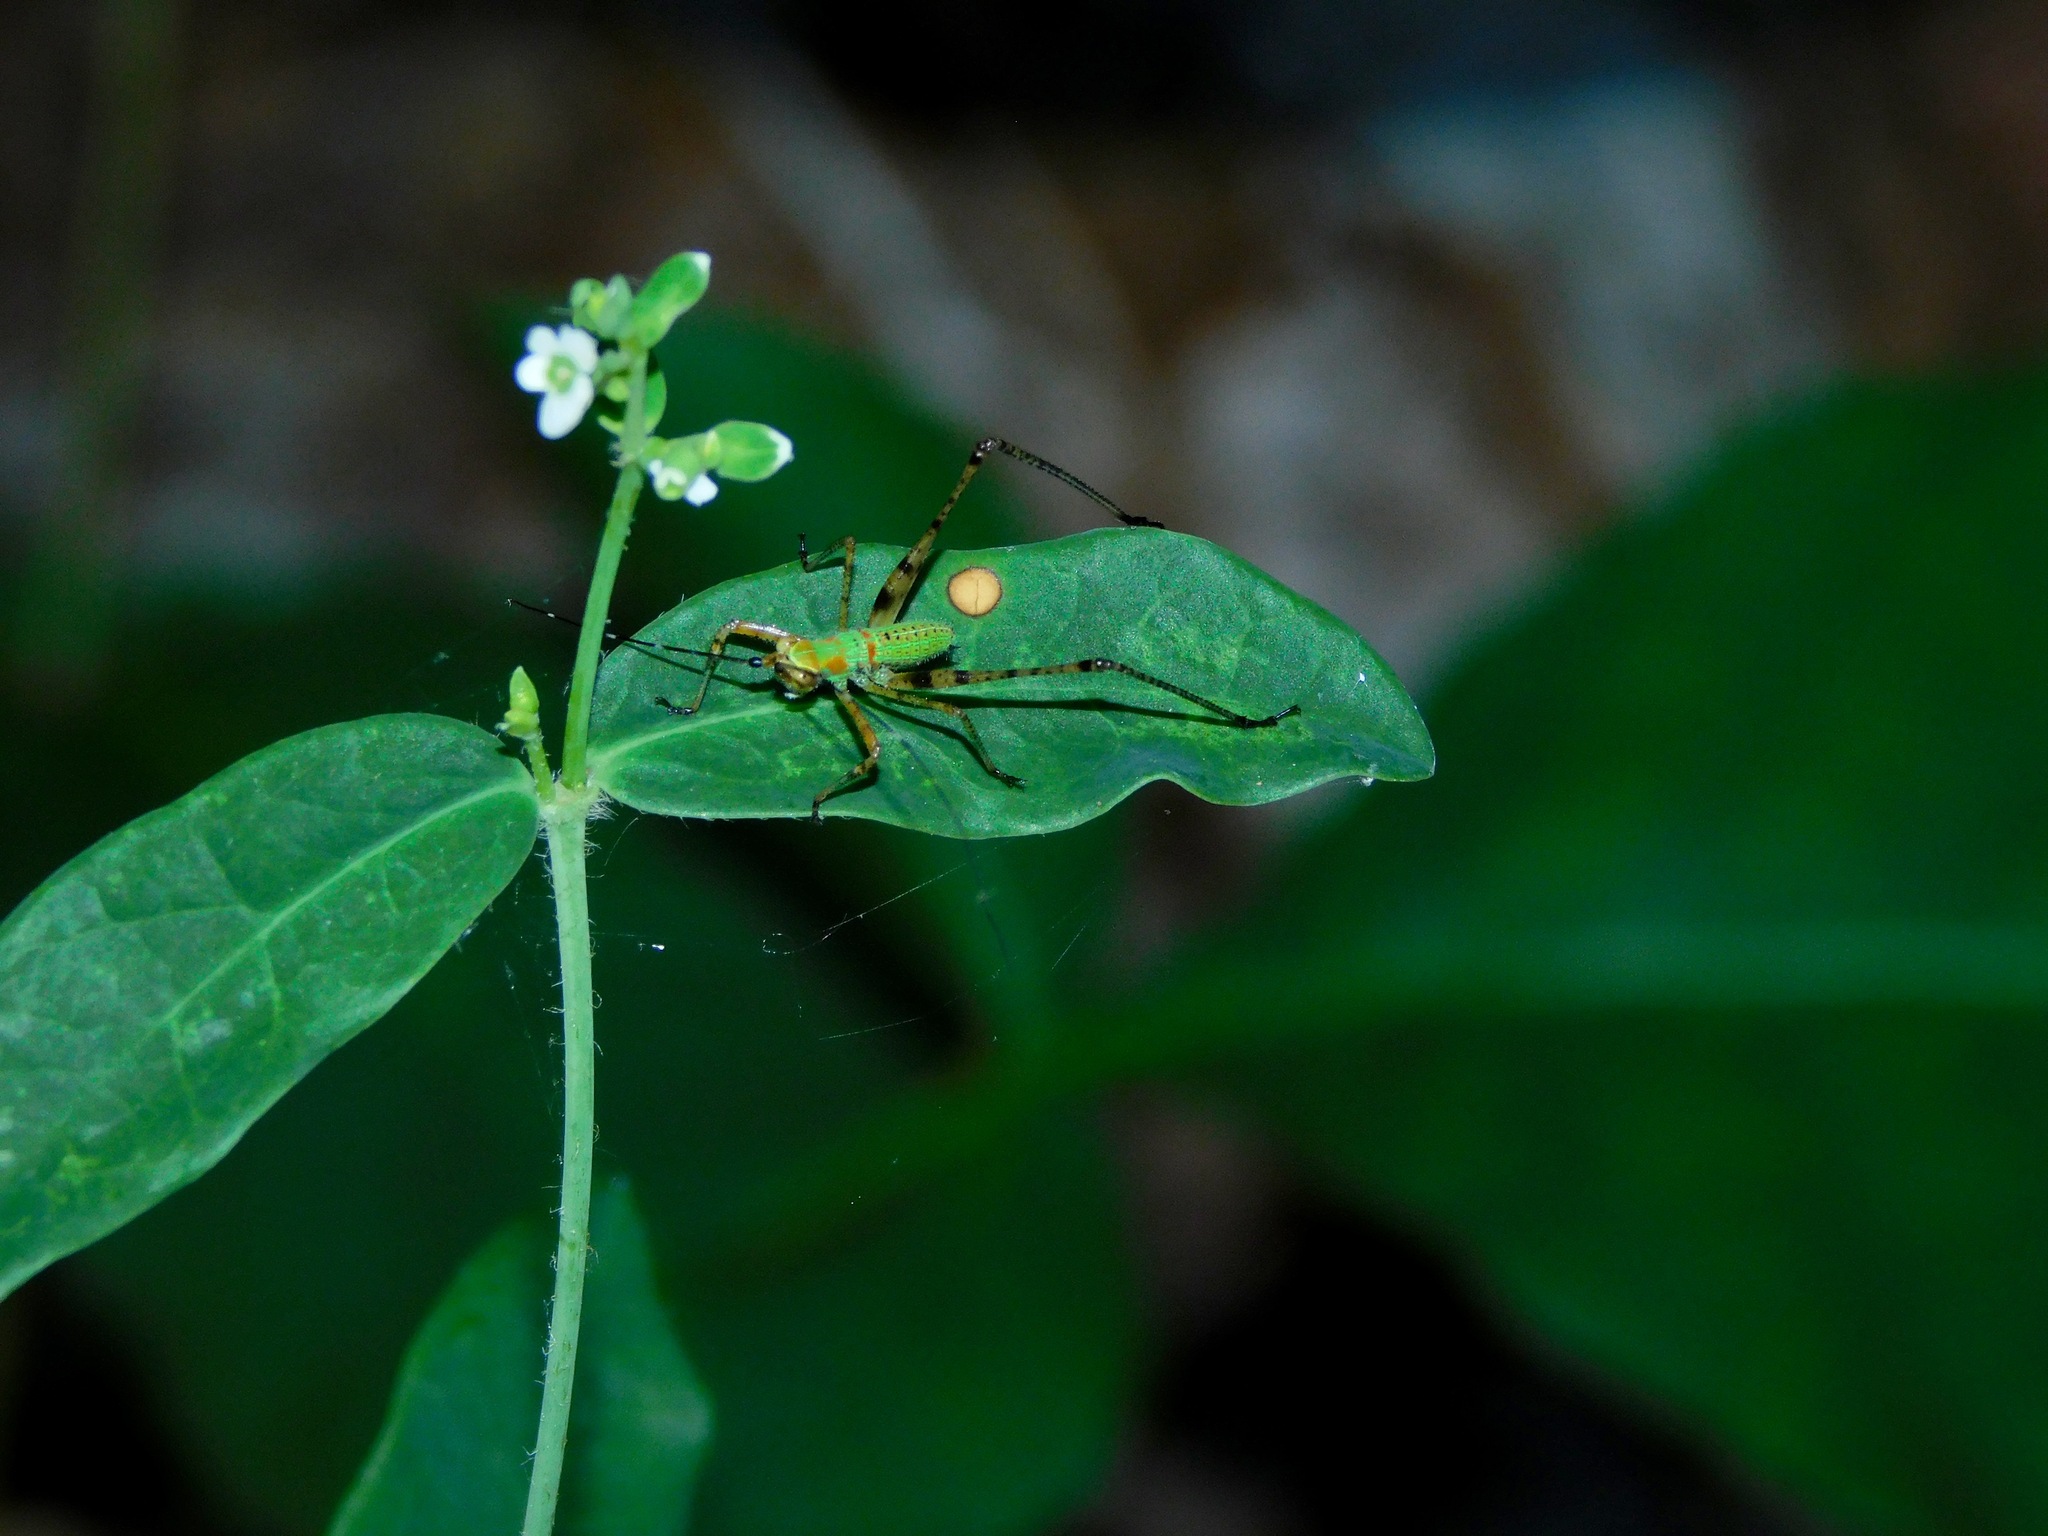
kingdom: Animalia
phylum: Arthropoda
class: Insecta
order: Orthoptera
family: Tettigoniidae
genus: Scudderia
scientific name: Scudderia furcata
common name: Fork-tailed bush katydid
